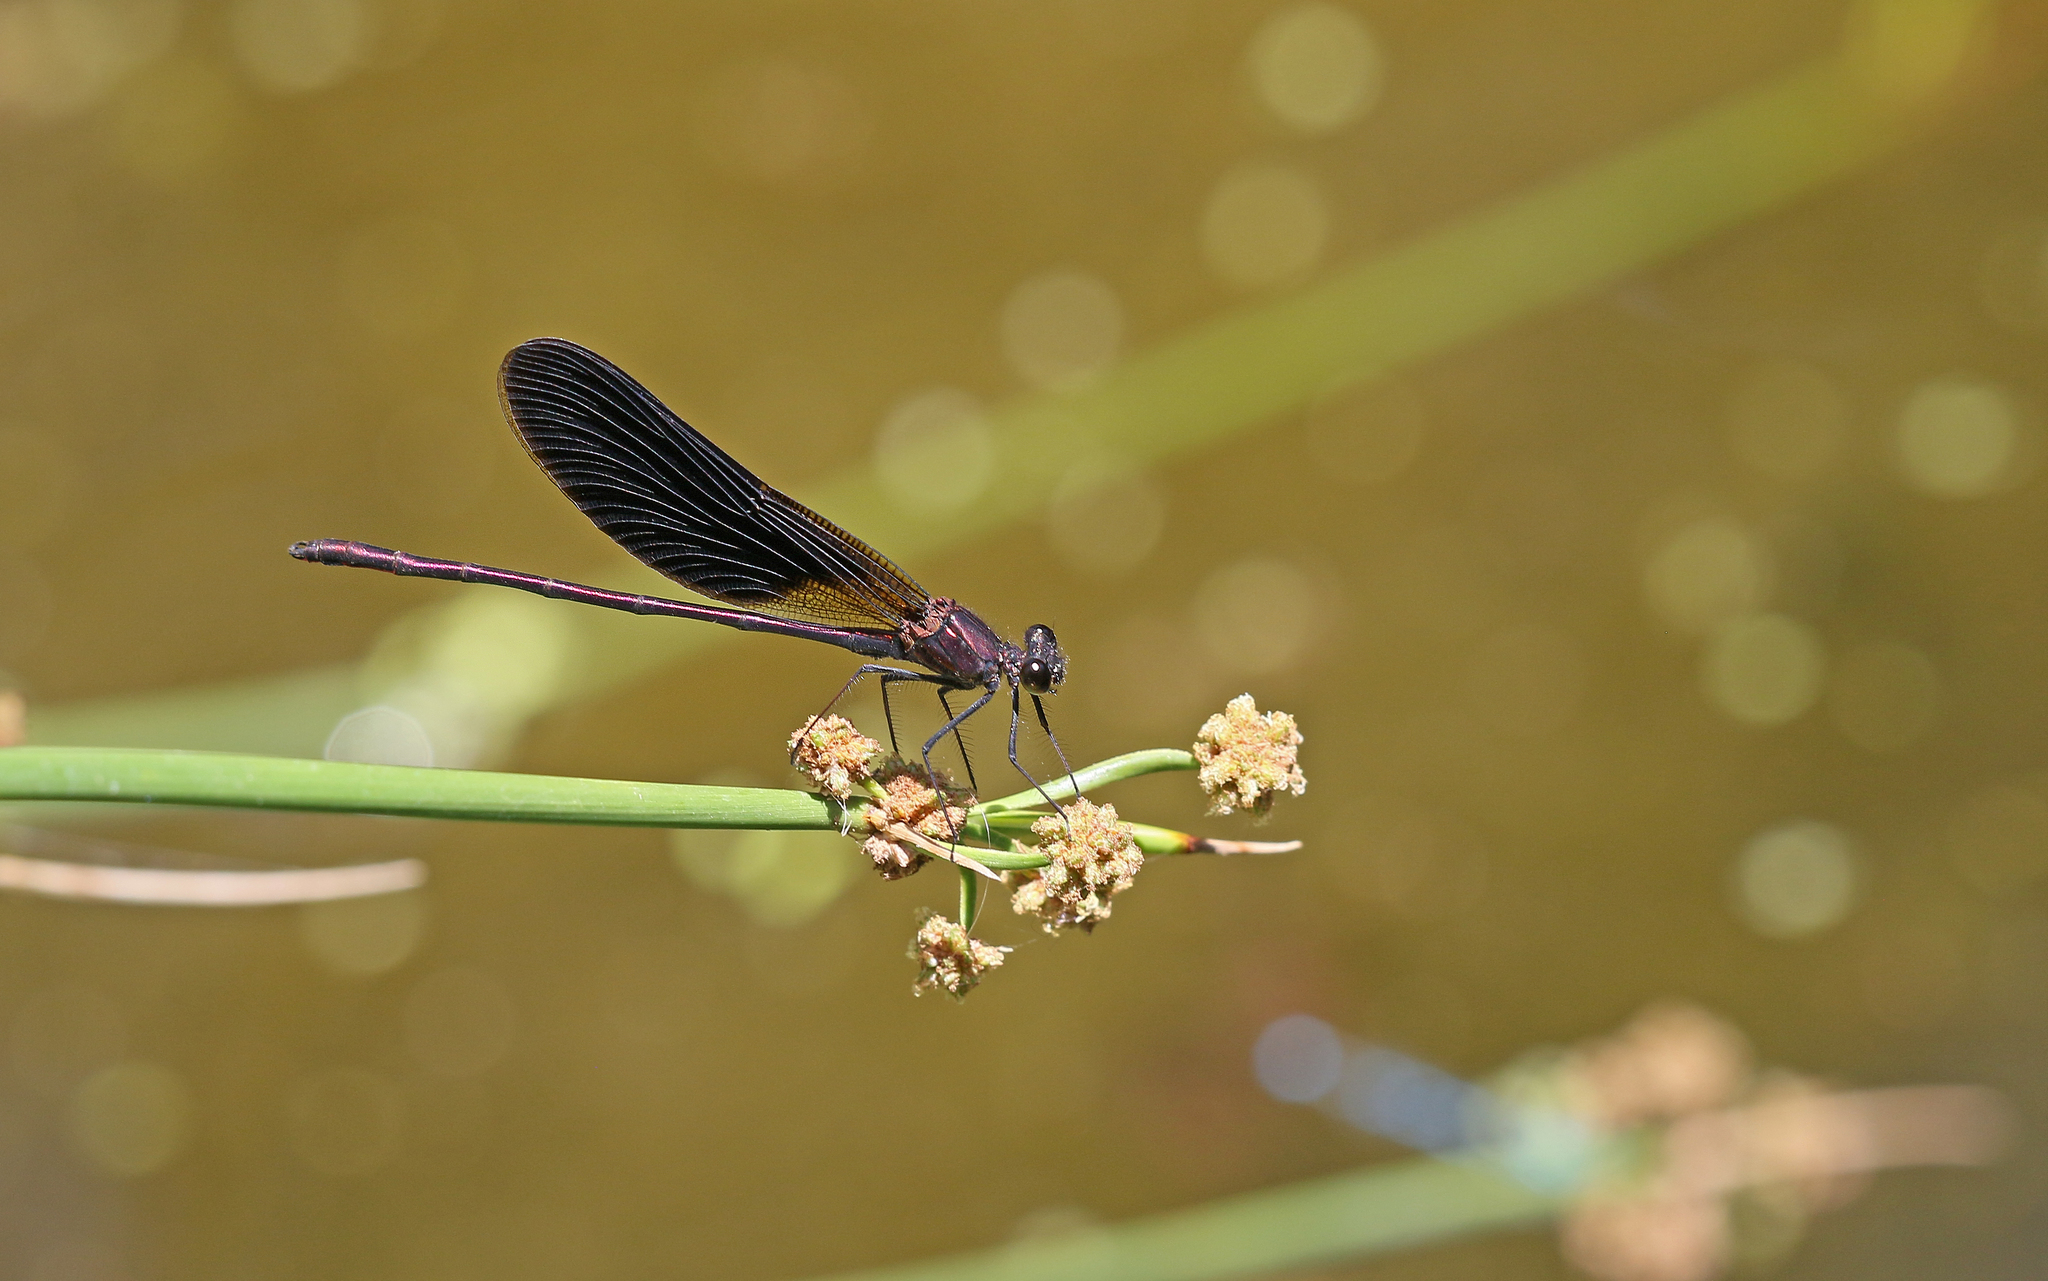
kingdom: Animalia
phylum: Arthropoda
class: Insecta
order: Odonata
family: Calopterygidae
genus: Calopteryx
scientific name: Calopteryx haemorrhoidalis
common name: Copper demoiselle
